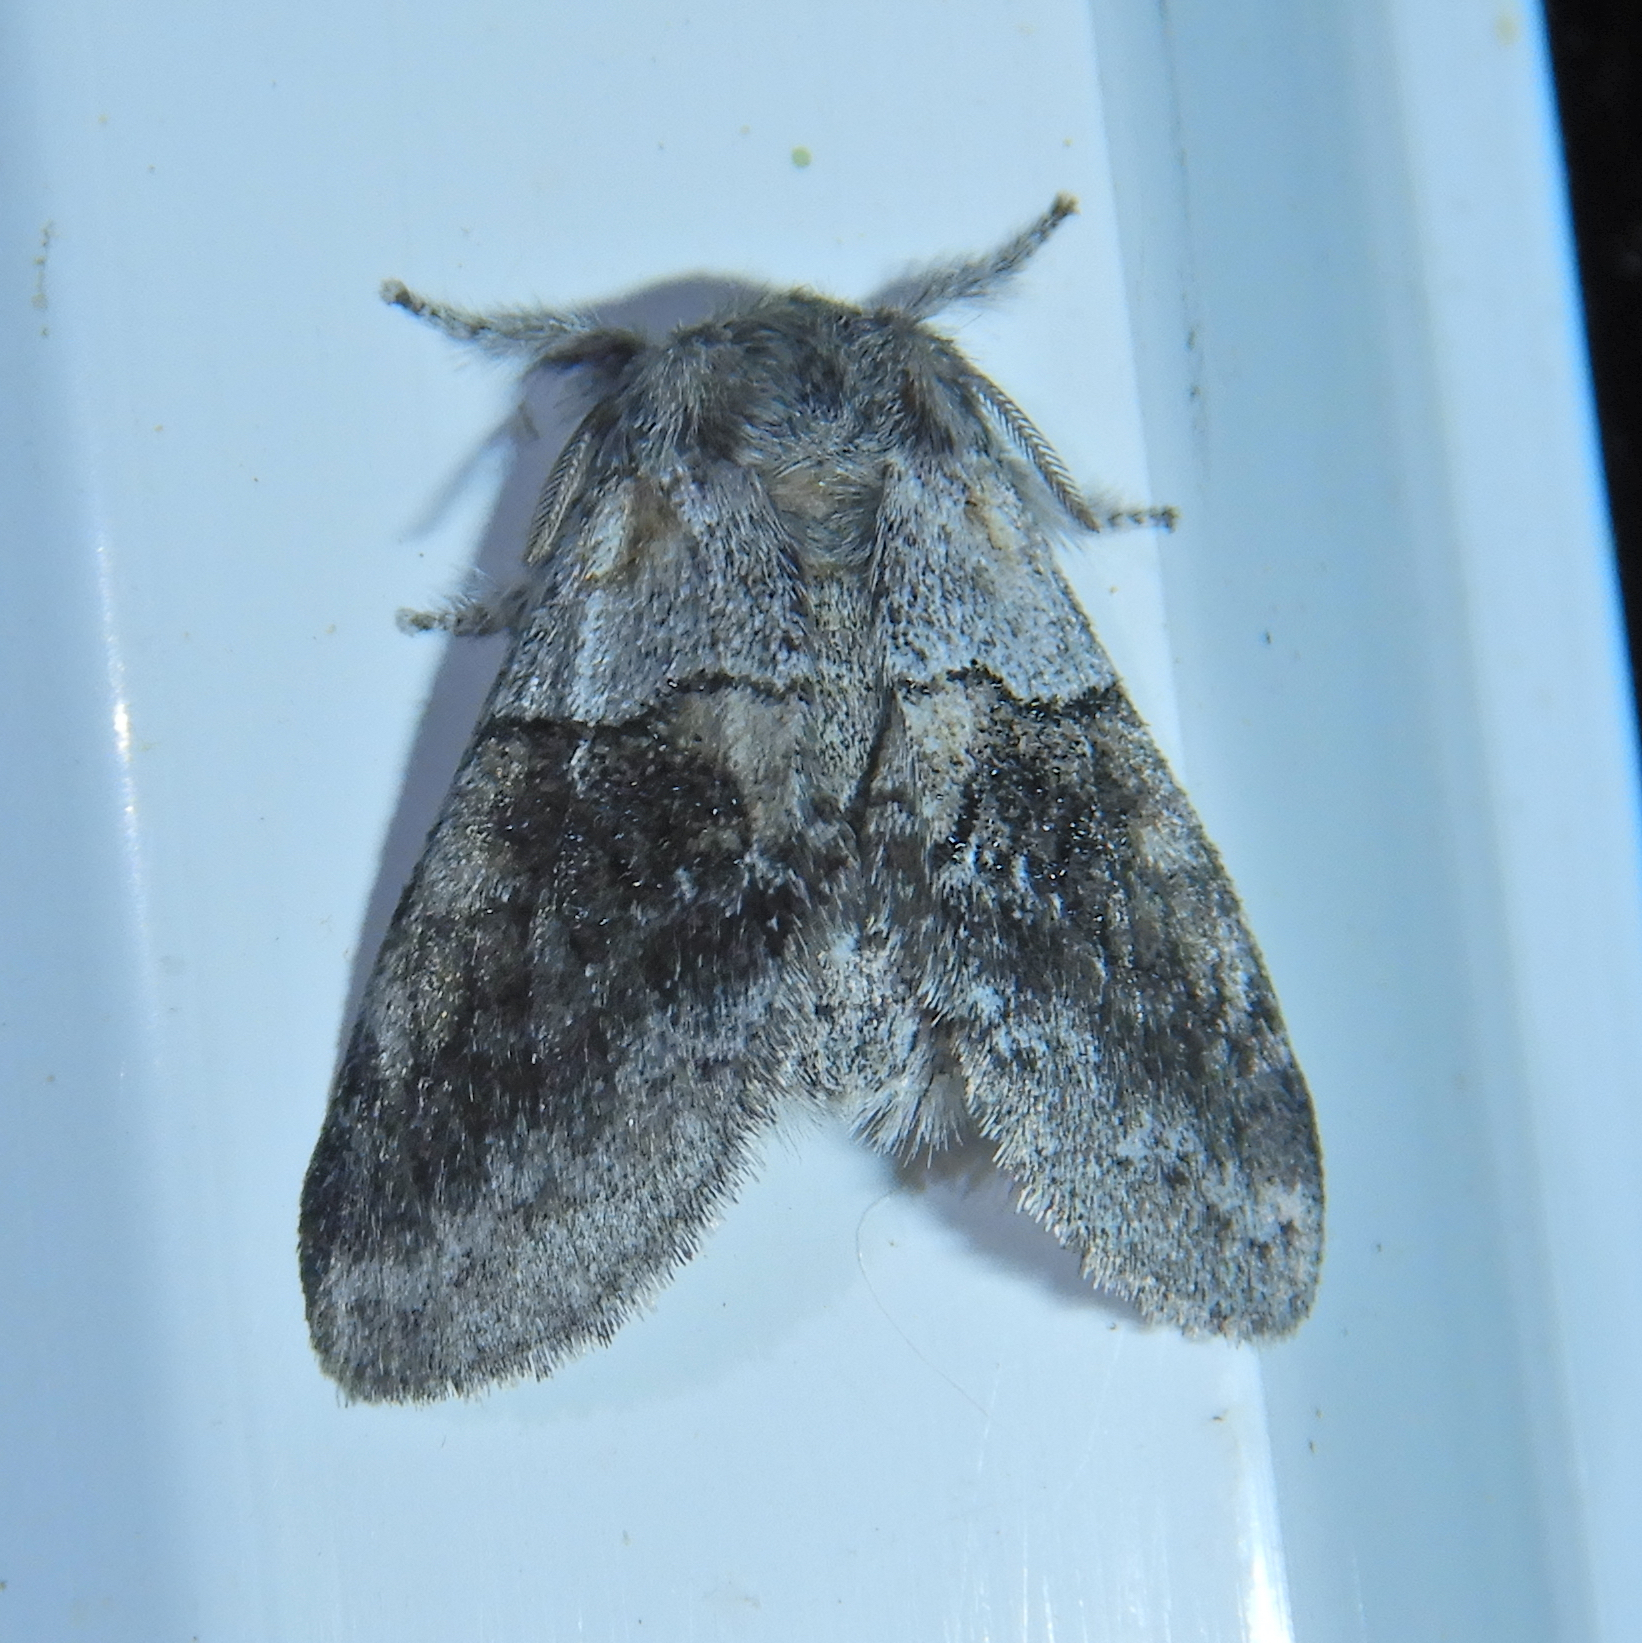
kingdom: Animalia
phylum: Arthropoda
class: Insecta
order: Lepidoptera
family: Notodontidae
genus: Gluphisia
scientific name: Gluphisia septentrionis
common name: Common gluphisia
